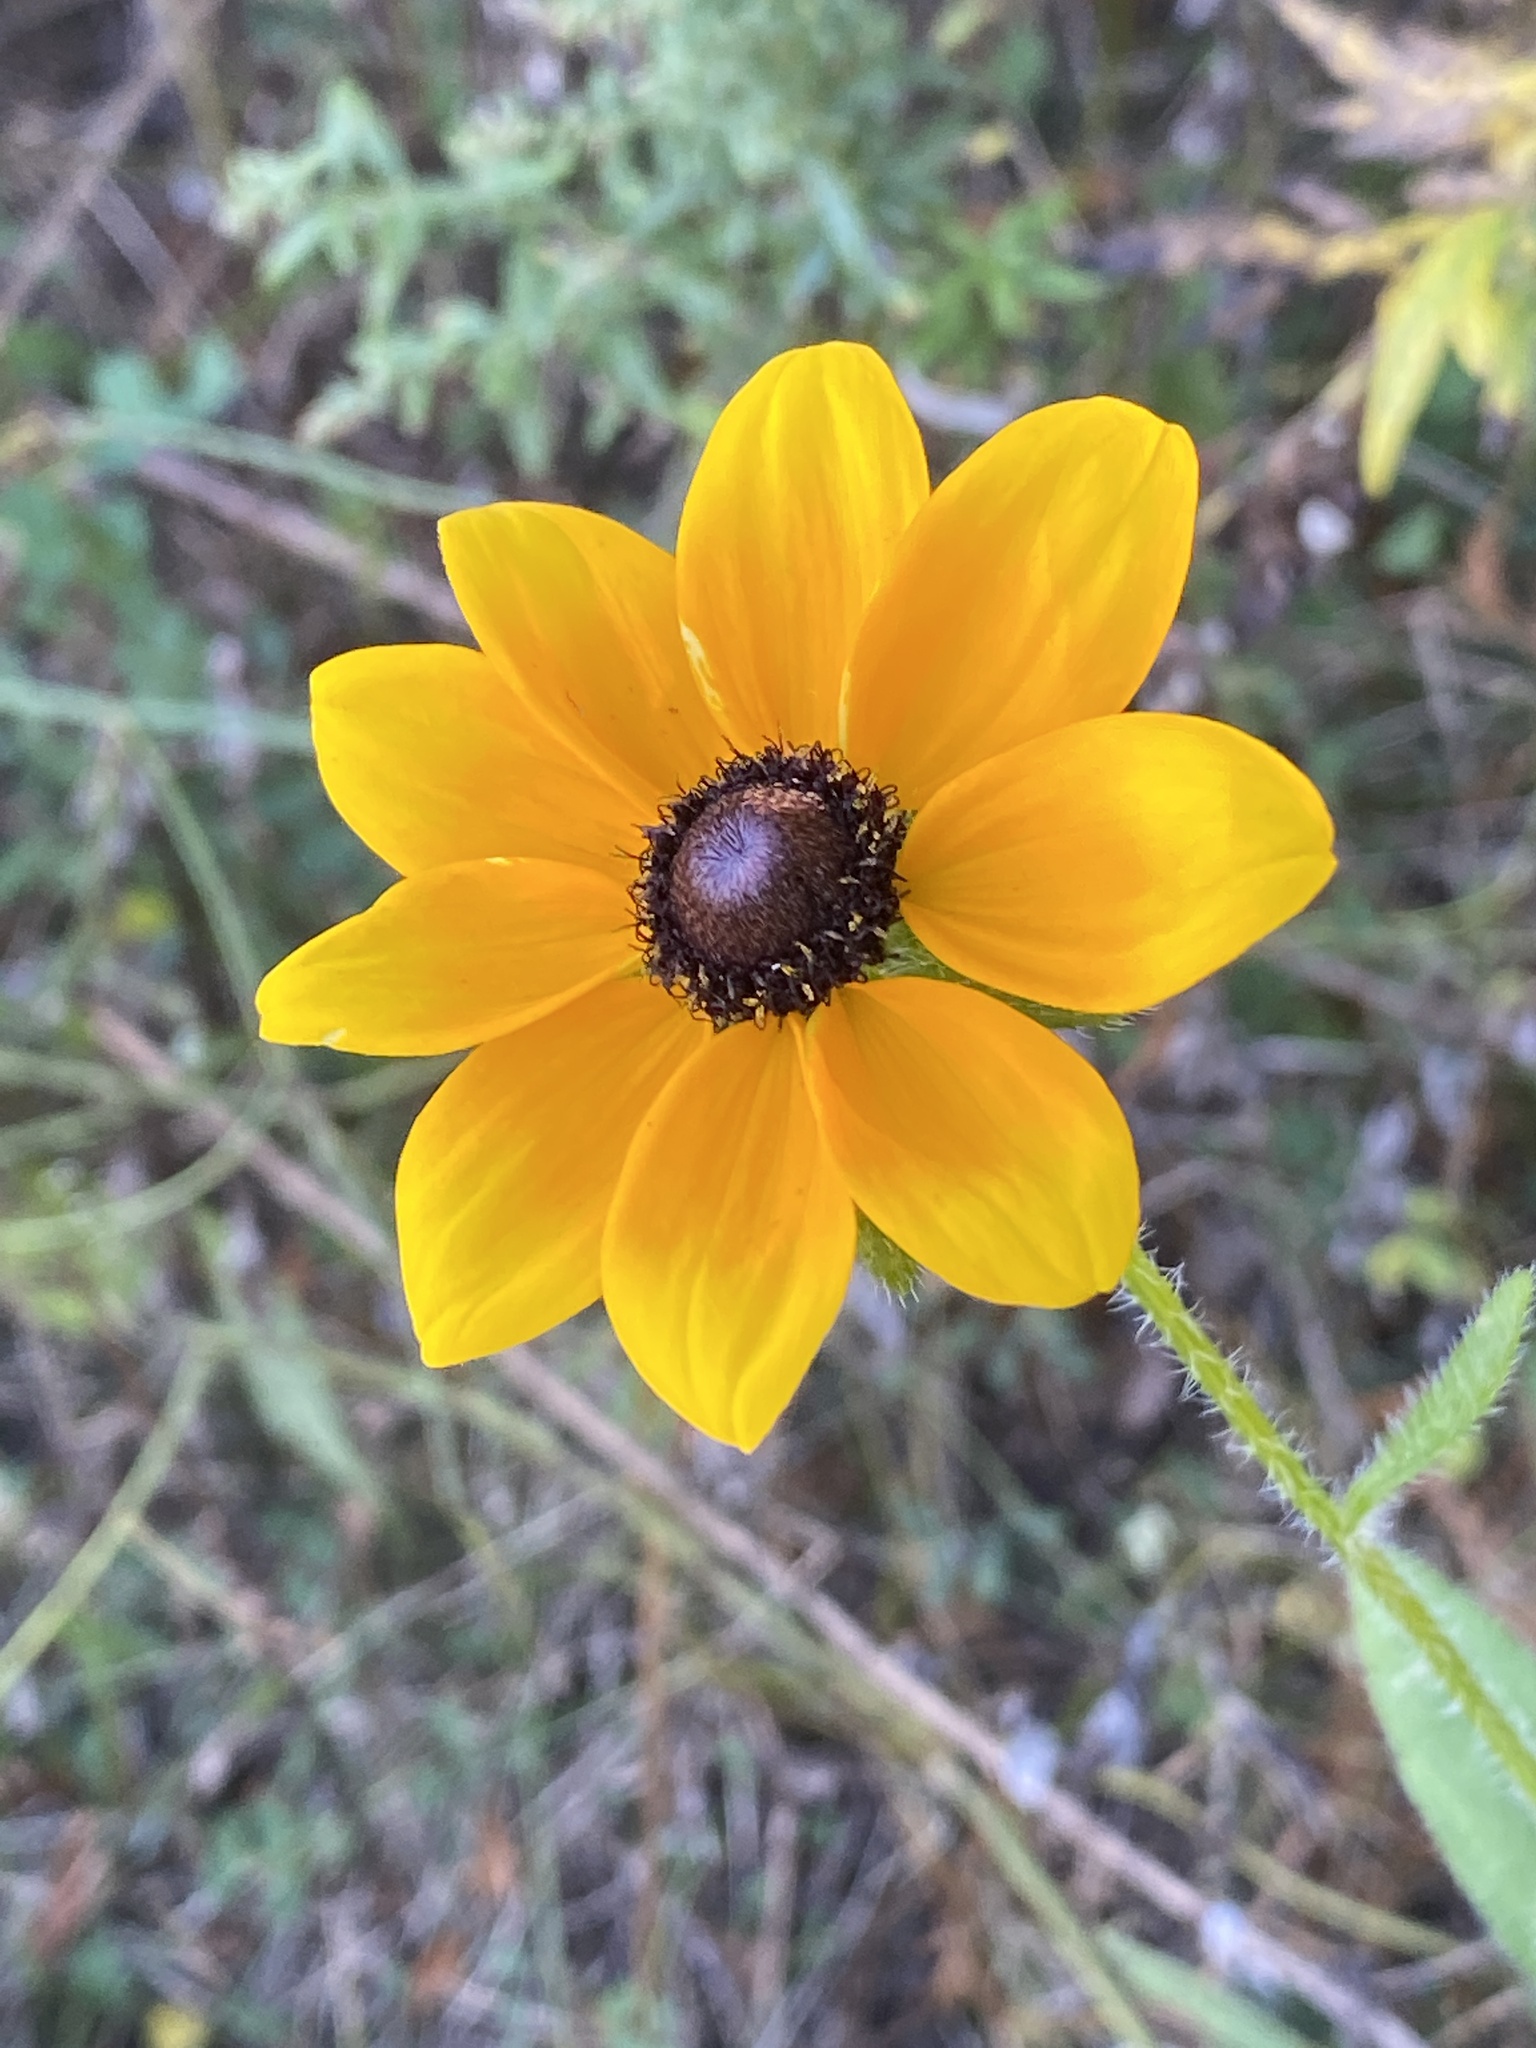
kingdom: Plantae
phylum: Tracheophyta
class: Magnoliopsida
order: Asterales
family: Asteraceae
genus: Rudbeckia
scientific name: Rudbeckia hirta
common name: Black-eyed-susan
